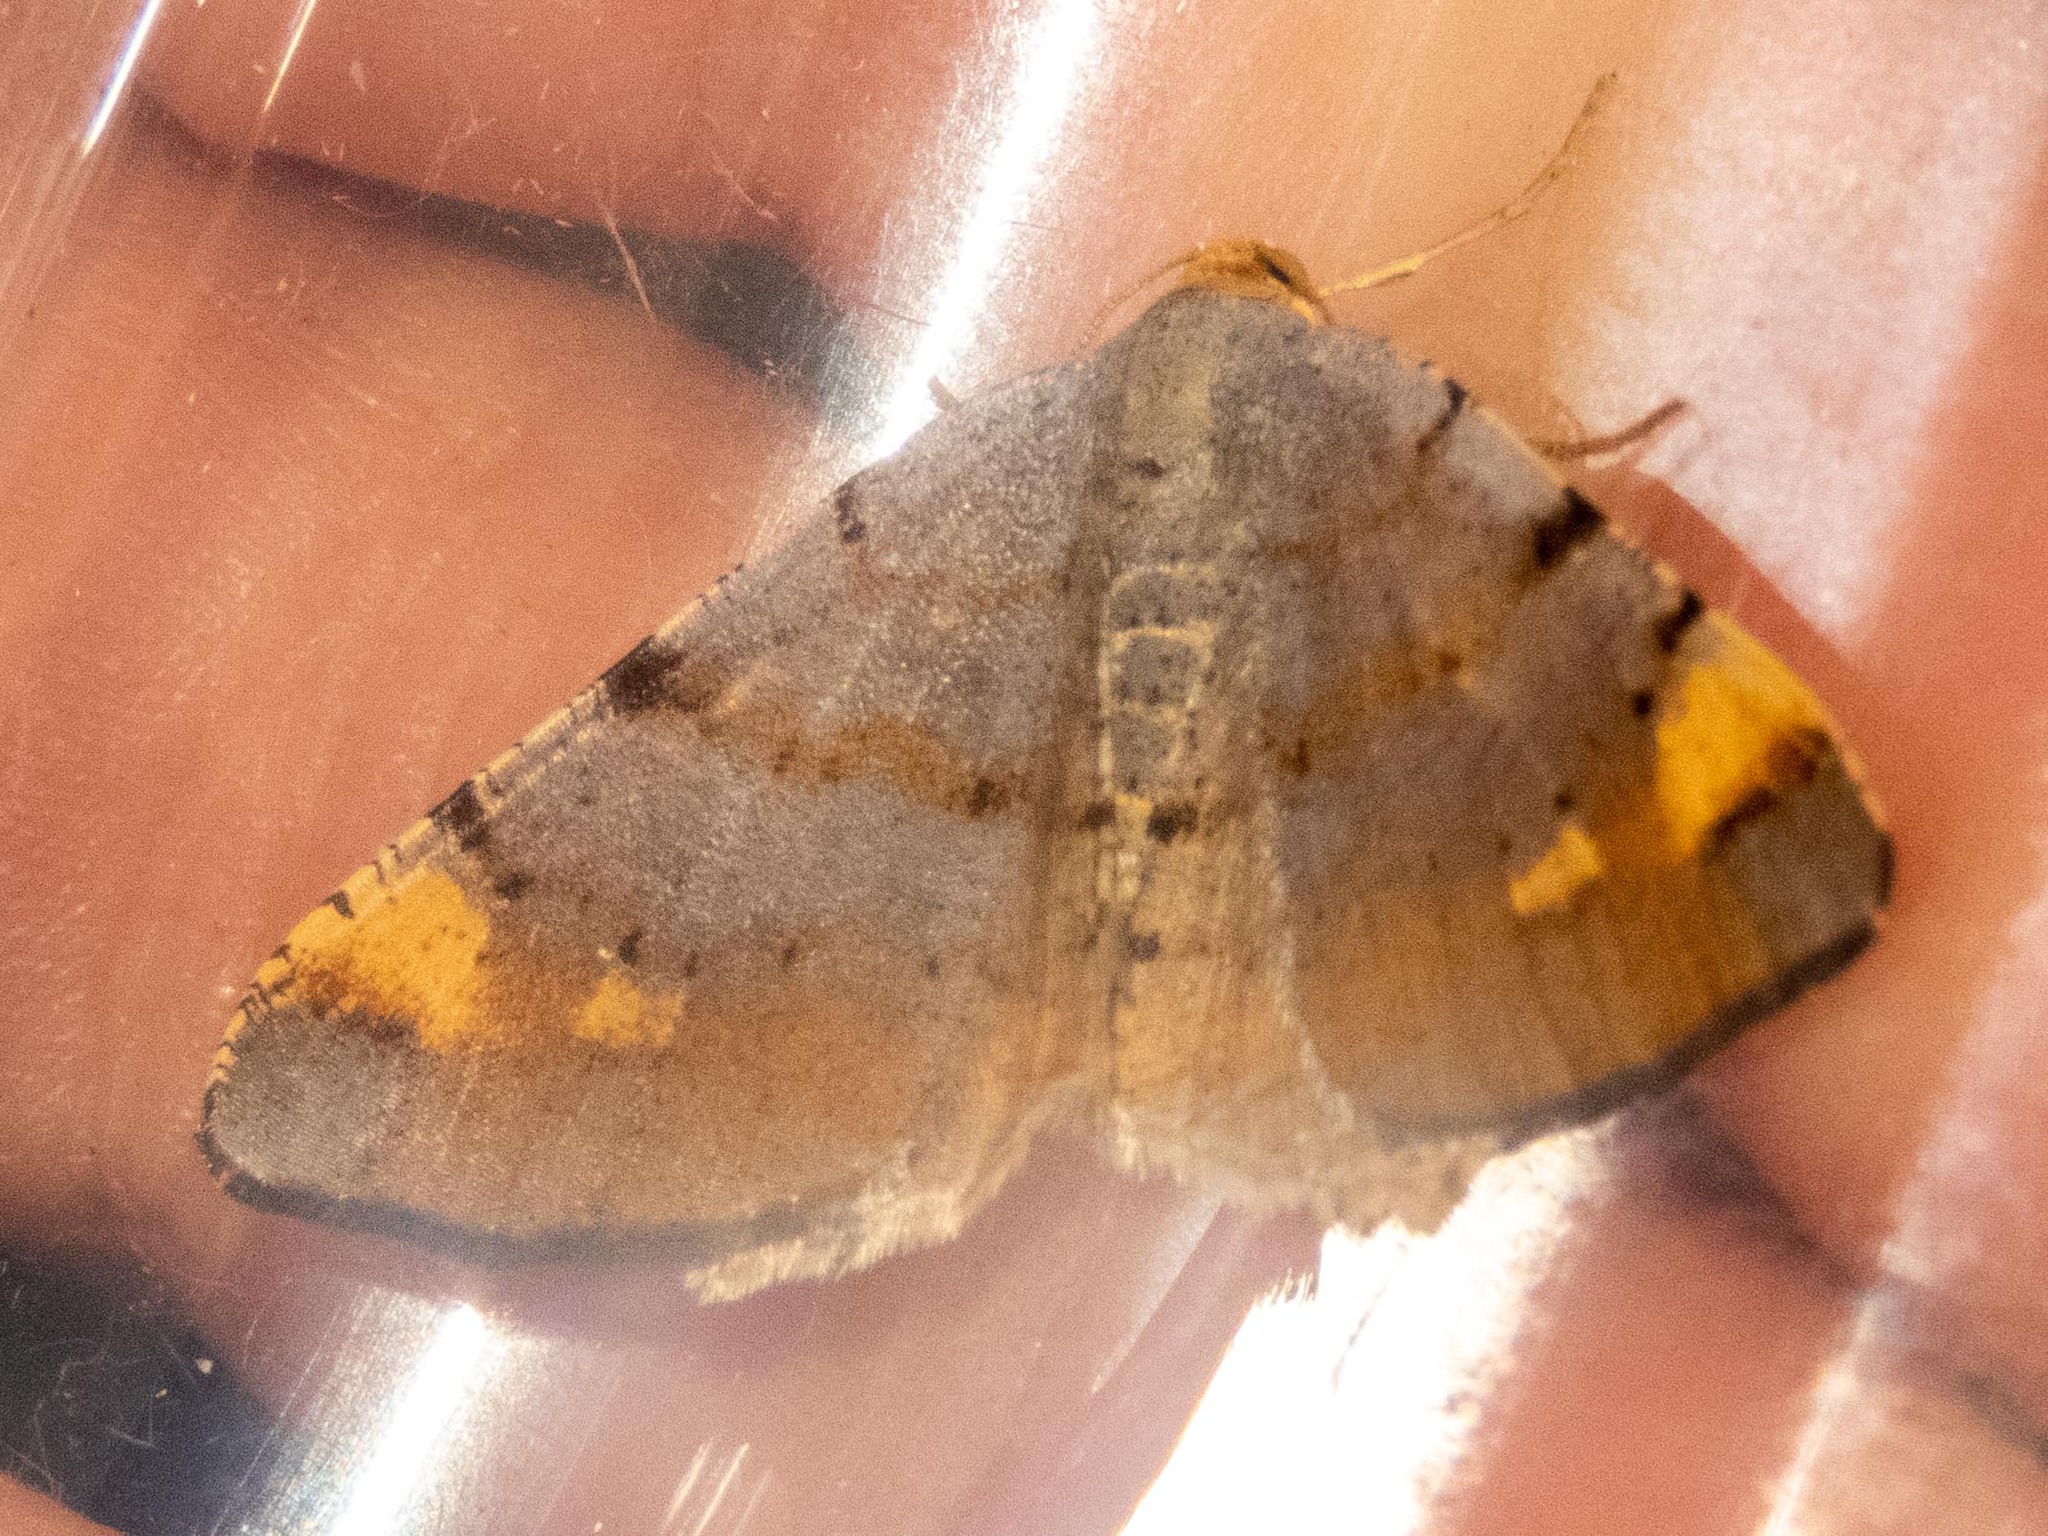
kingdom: Animalia
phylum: Arthropoda
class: Insecta
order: Lepidoptera
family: Geometridae
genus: Macaria
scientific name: Macaria liturata
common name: Tawny-barred angle
